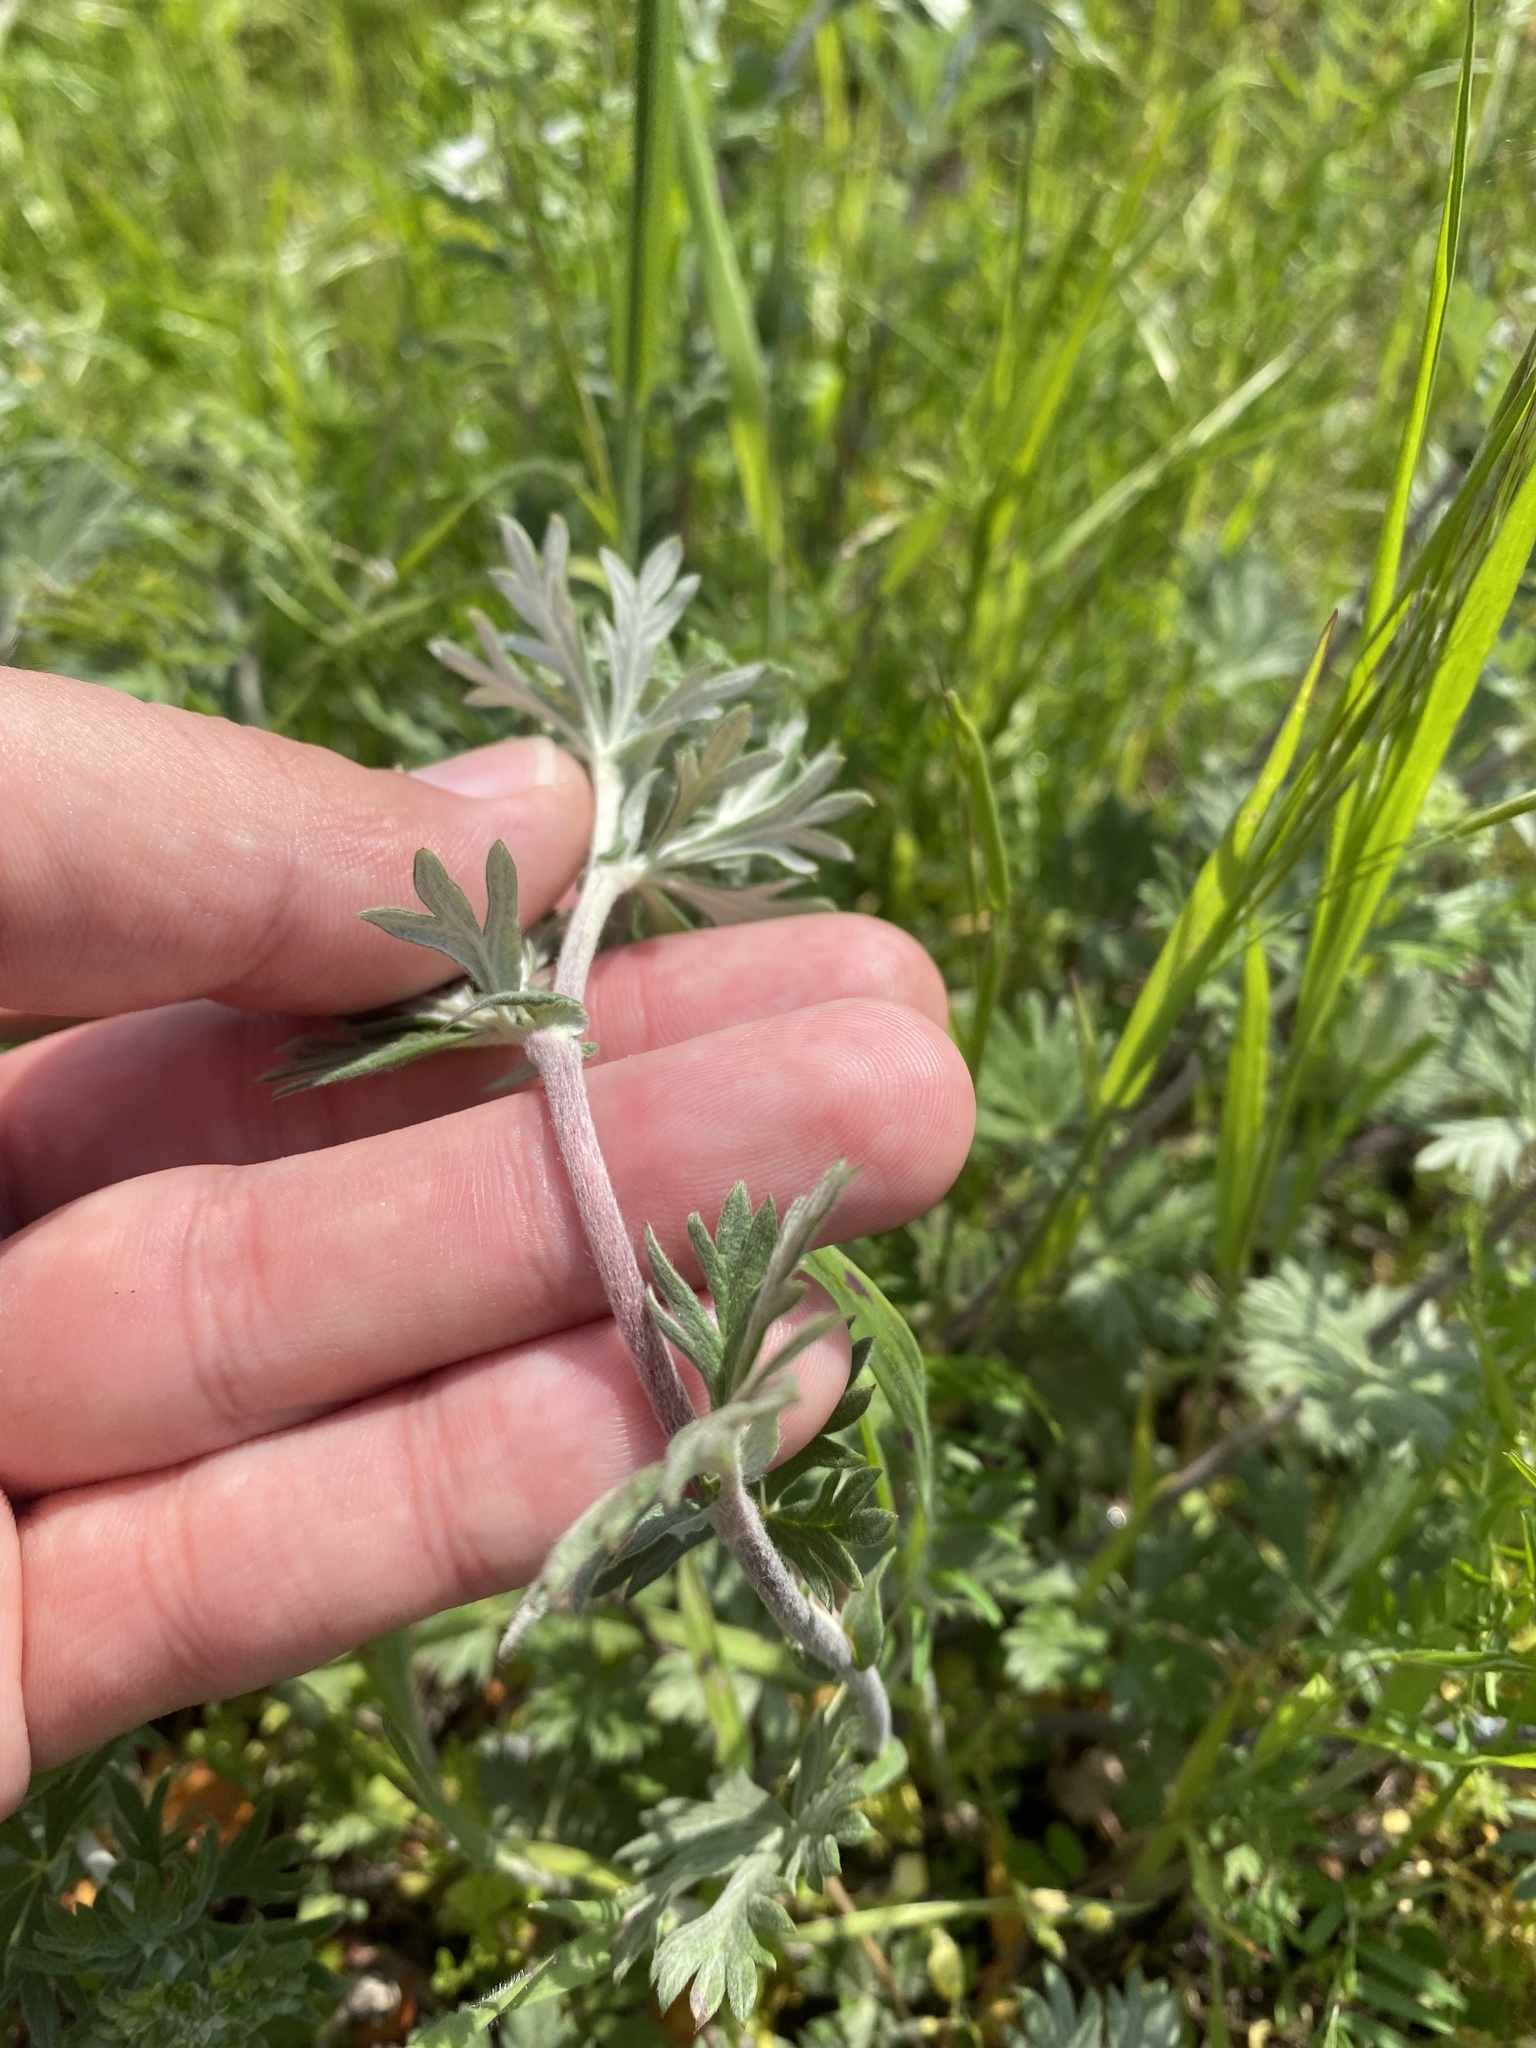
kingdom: Plantae
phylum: Tracheophyta
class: Magnoliopsida
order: Asterales
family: Asteraceae
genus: Artemisia
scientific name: Artemisia absinthium
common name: Wormwood
